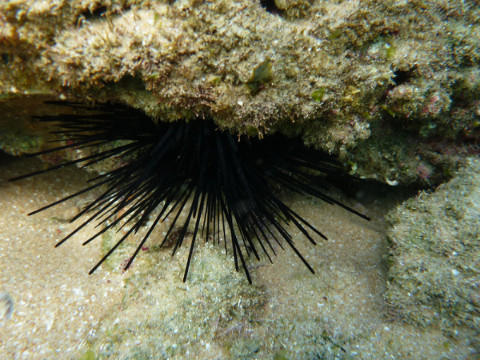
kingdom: Animalia
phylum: Echinodermata
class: Echinoidea
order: Diadematoida
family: Diadematidae
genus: Diadema
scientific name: Diadema setosum
